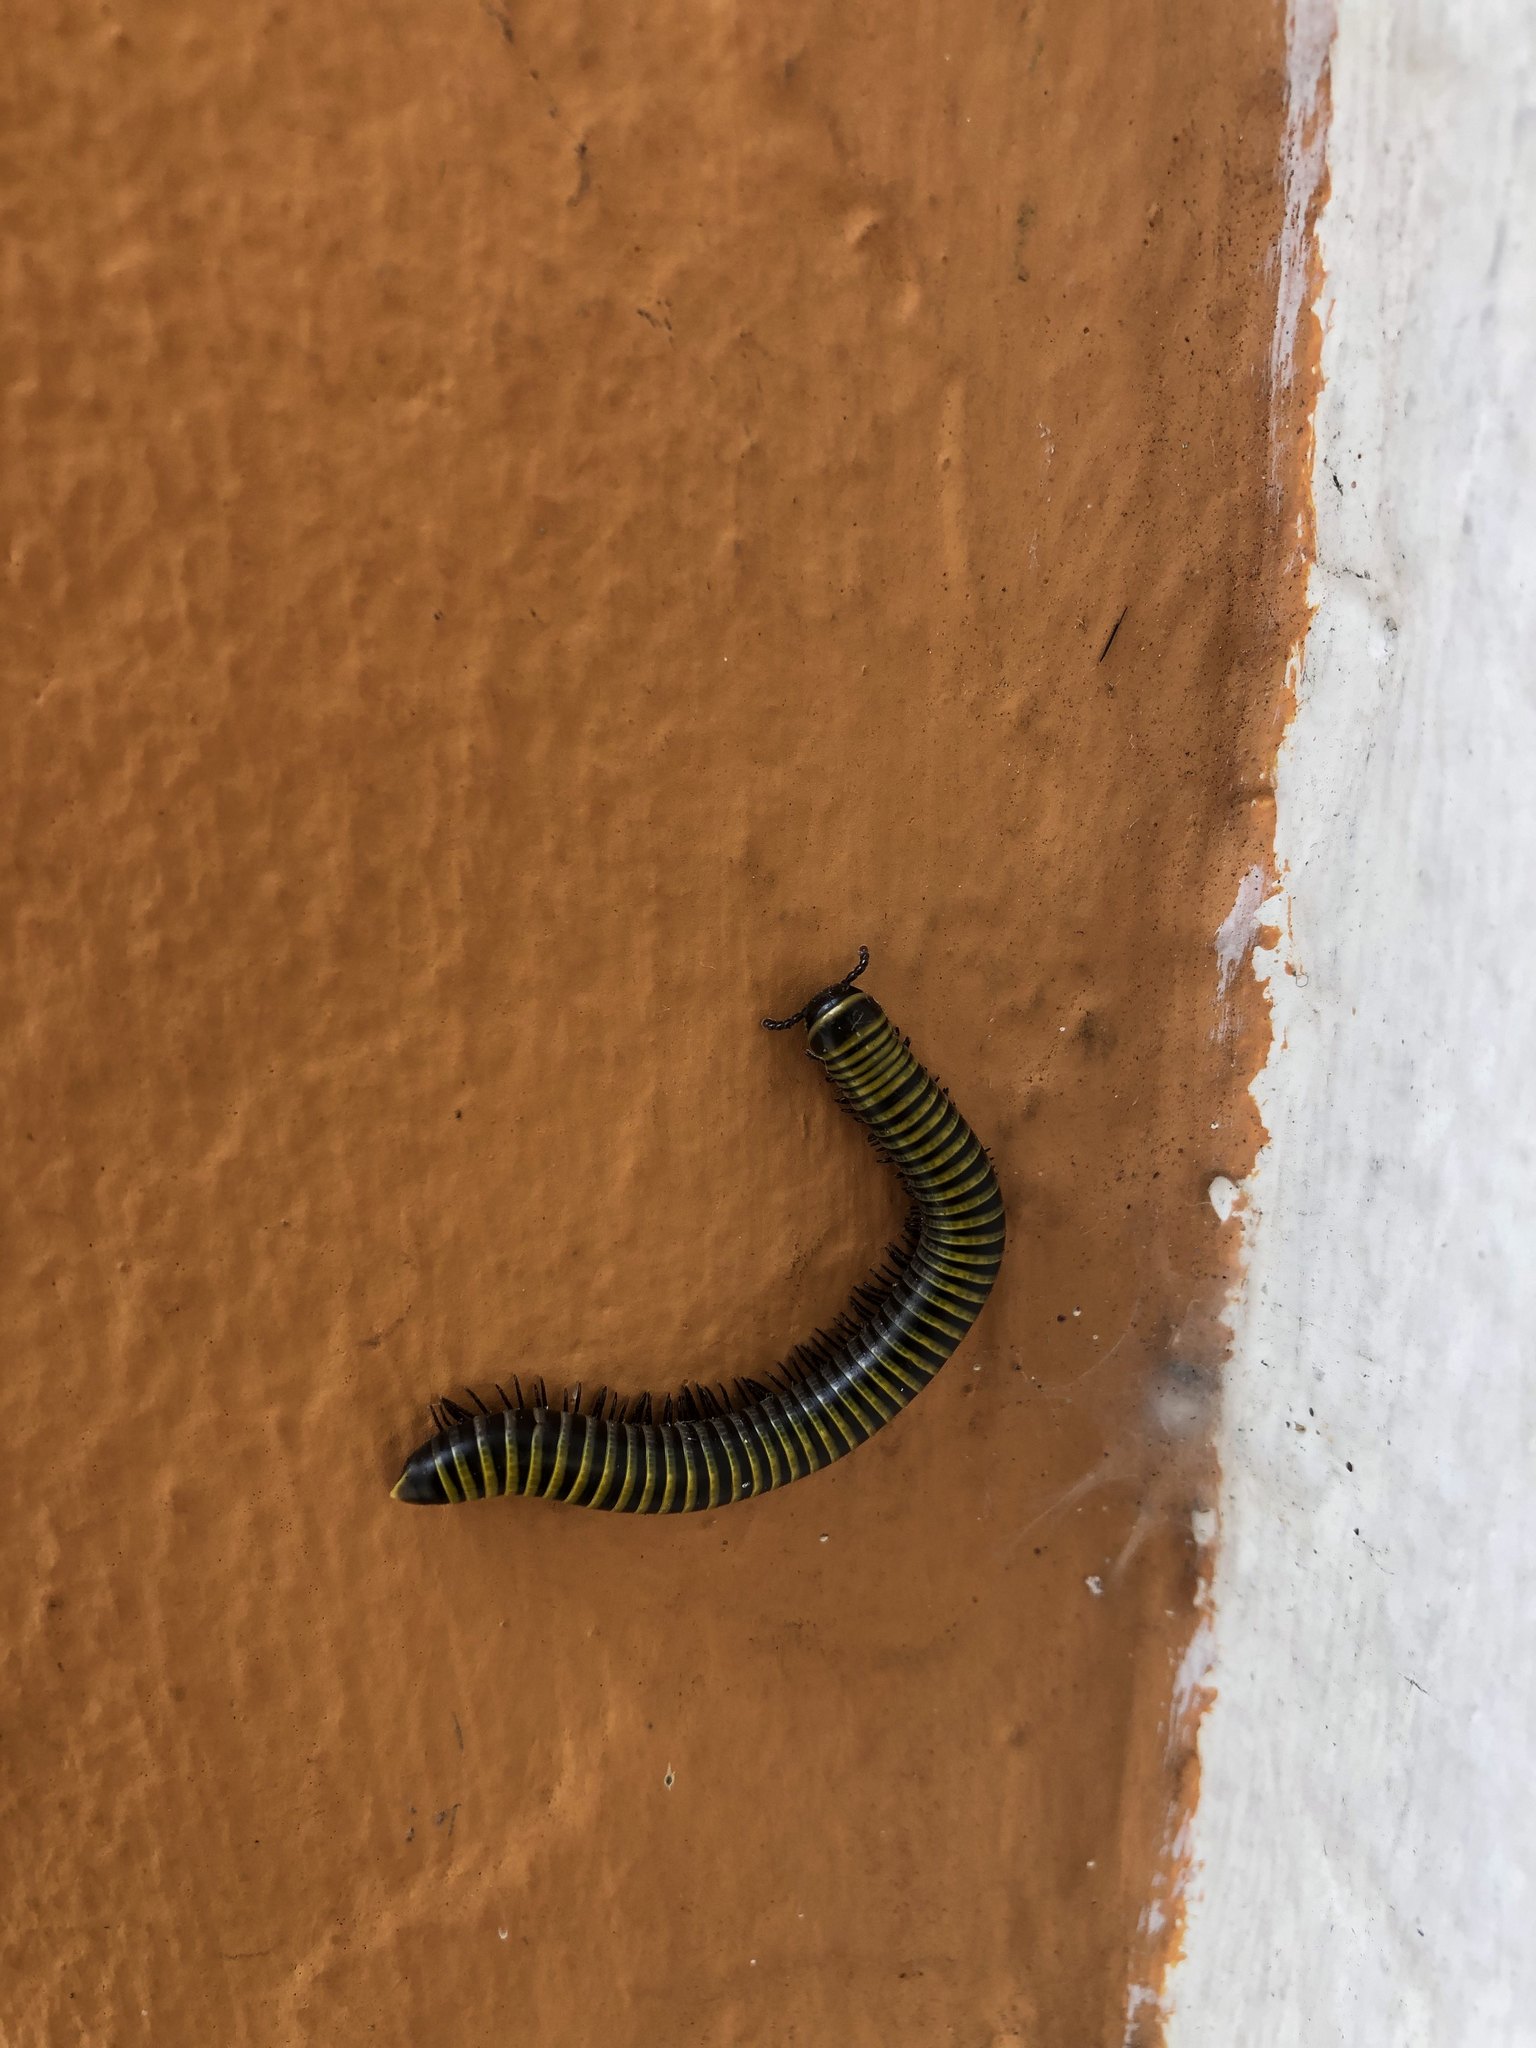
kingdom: Animalia
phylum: Arthropoda
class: Diplopoda
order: Spirobolida
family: Rhinocricidae
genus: Anadenobolus
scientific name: Anadenobolus monilicornis
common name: Caribbean millipede
